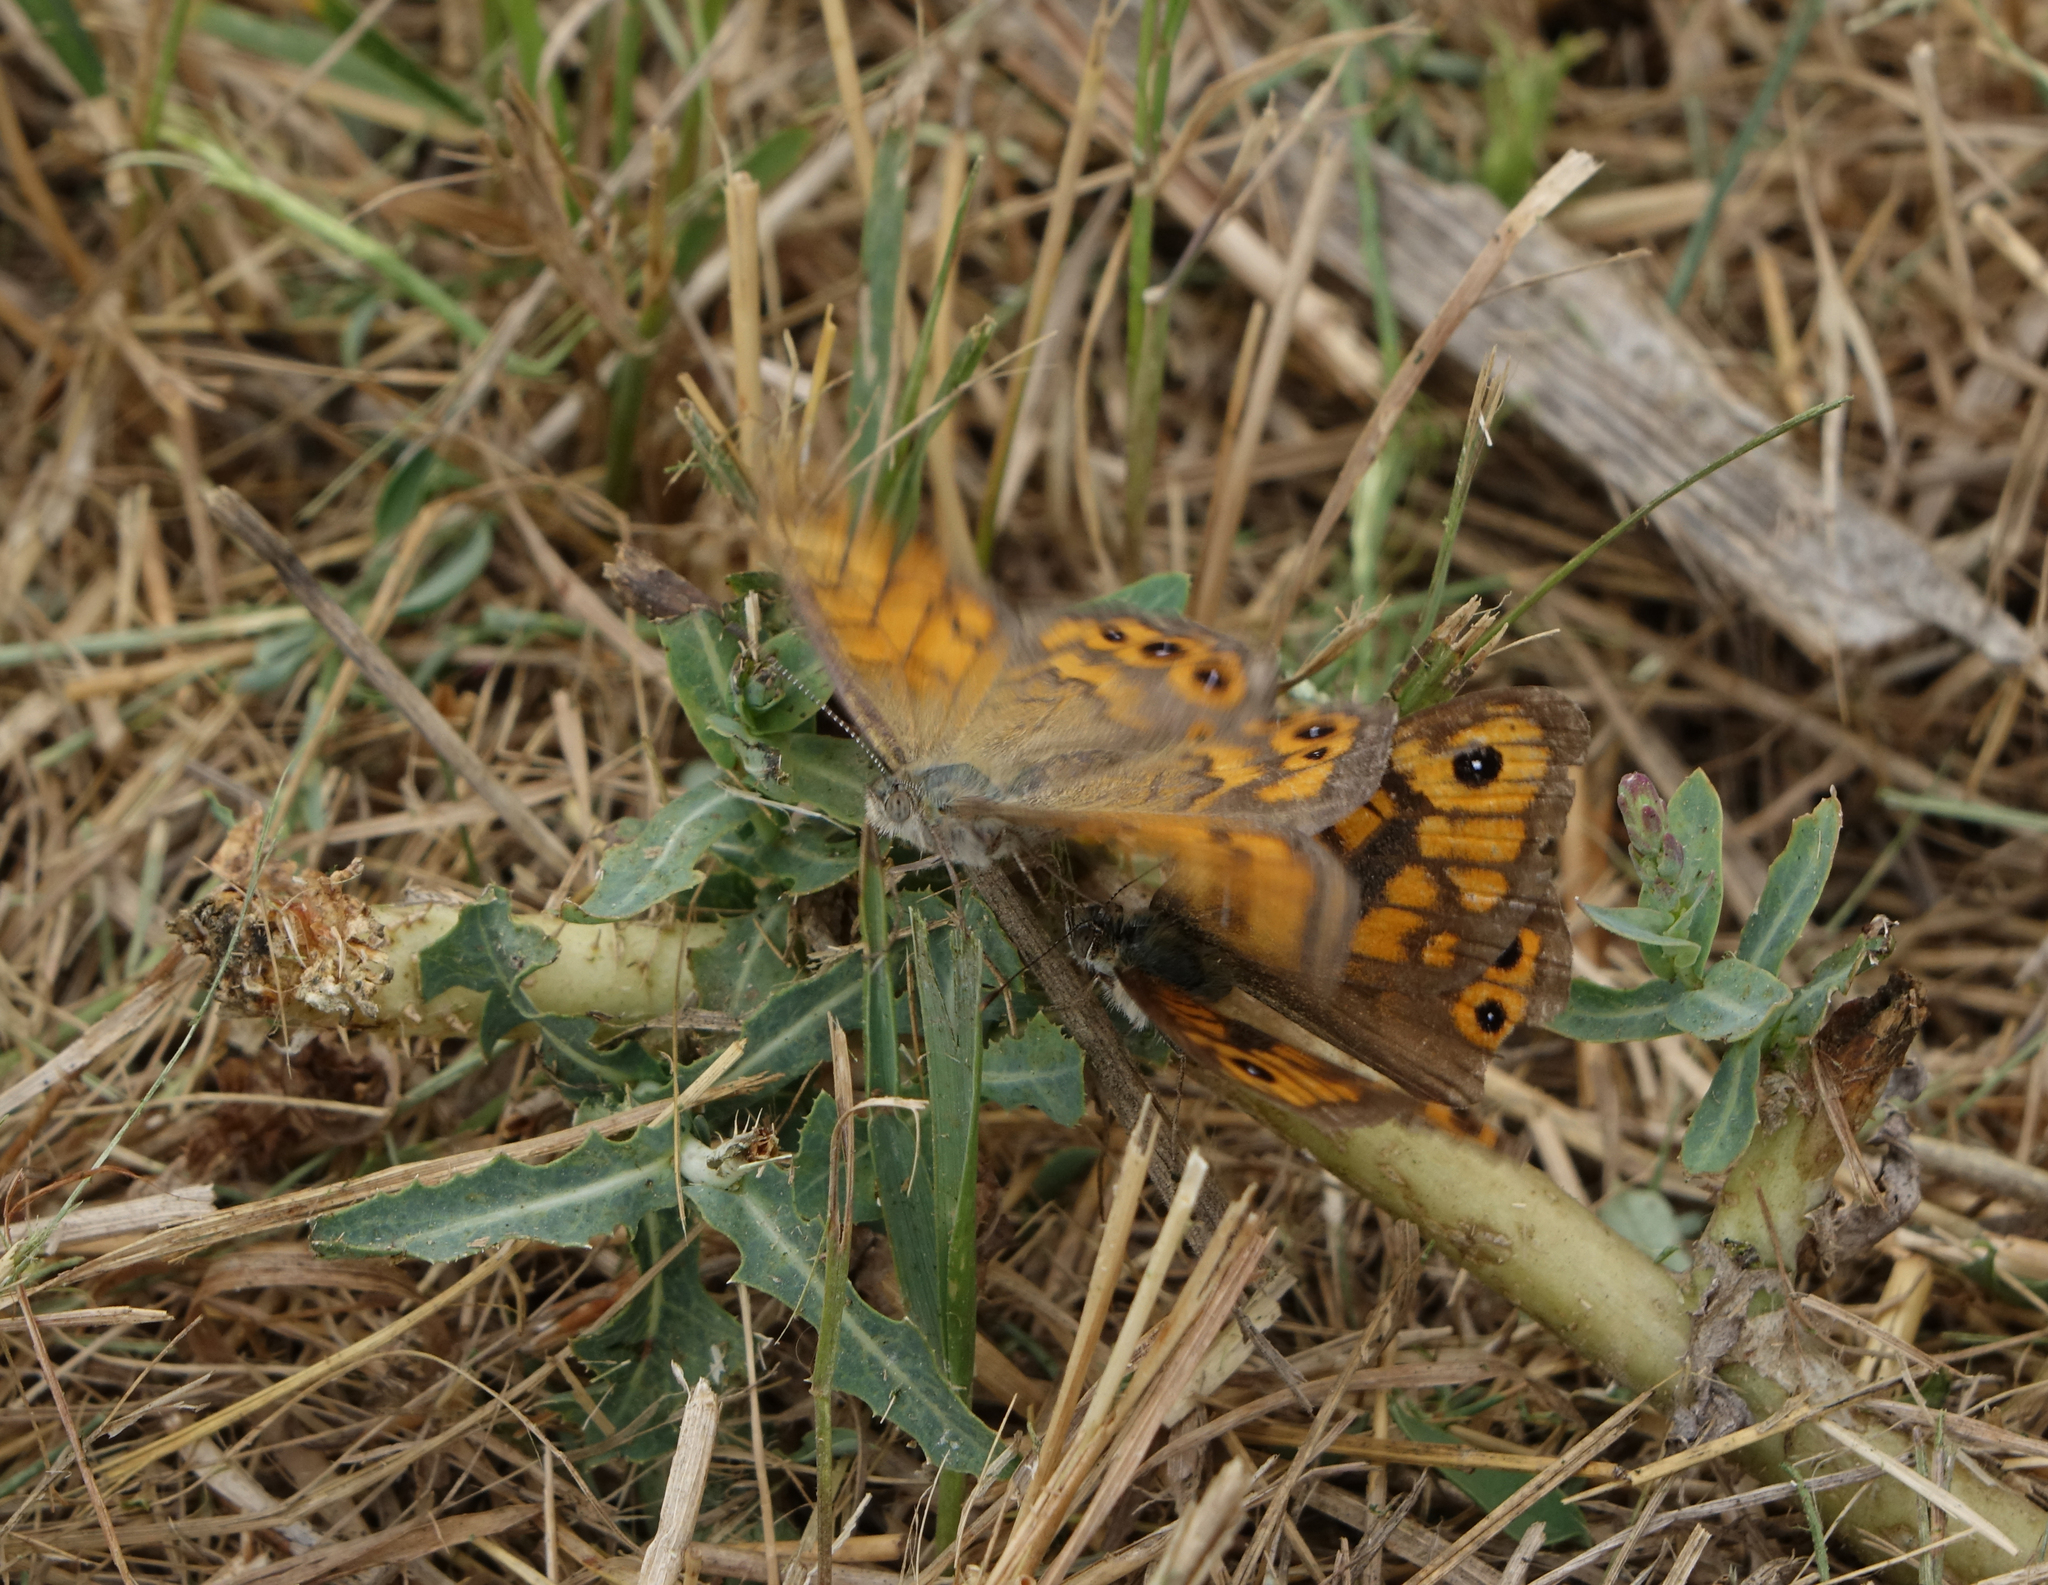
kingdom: Animalia
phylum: Arthropoda
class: Insecta
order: Lepidoptera
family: Nymphalidae
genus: Pararge
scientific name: Pararge Lasiommata megera
